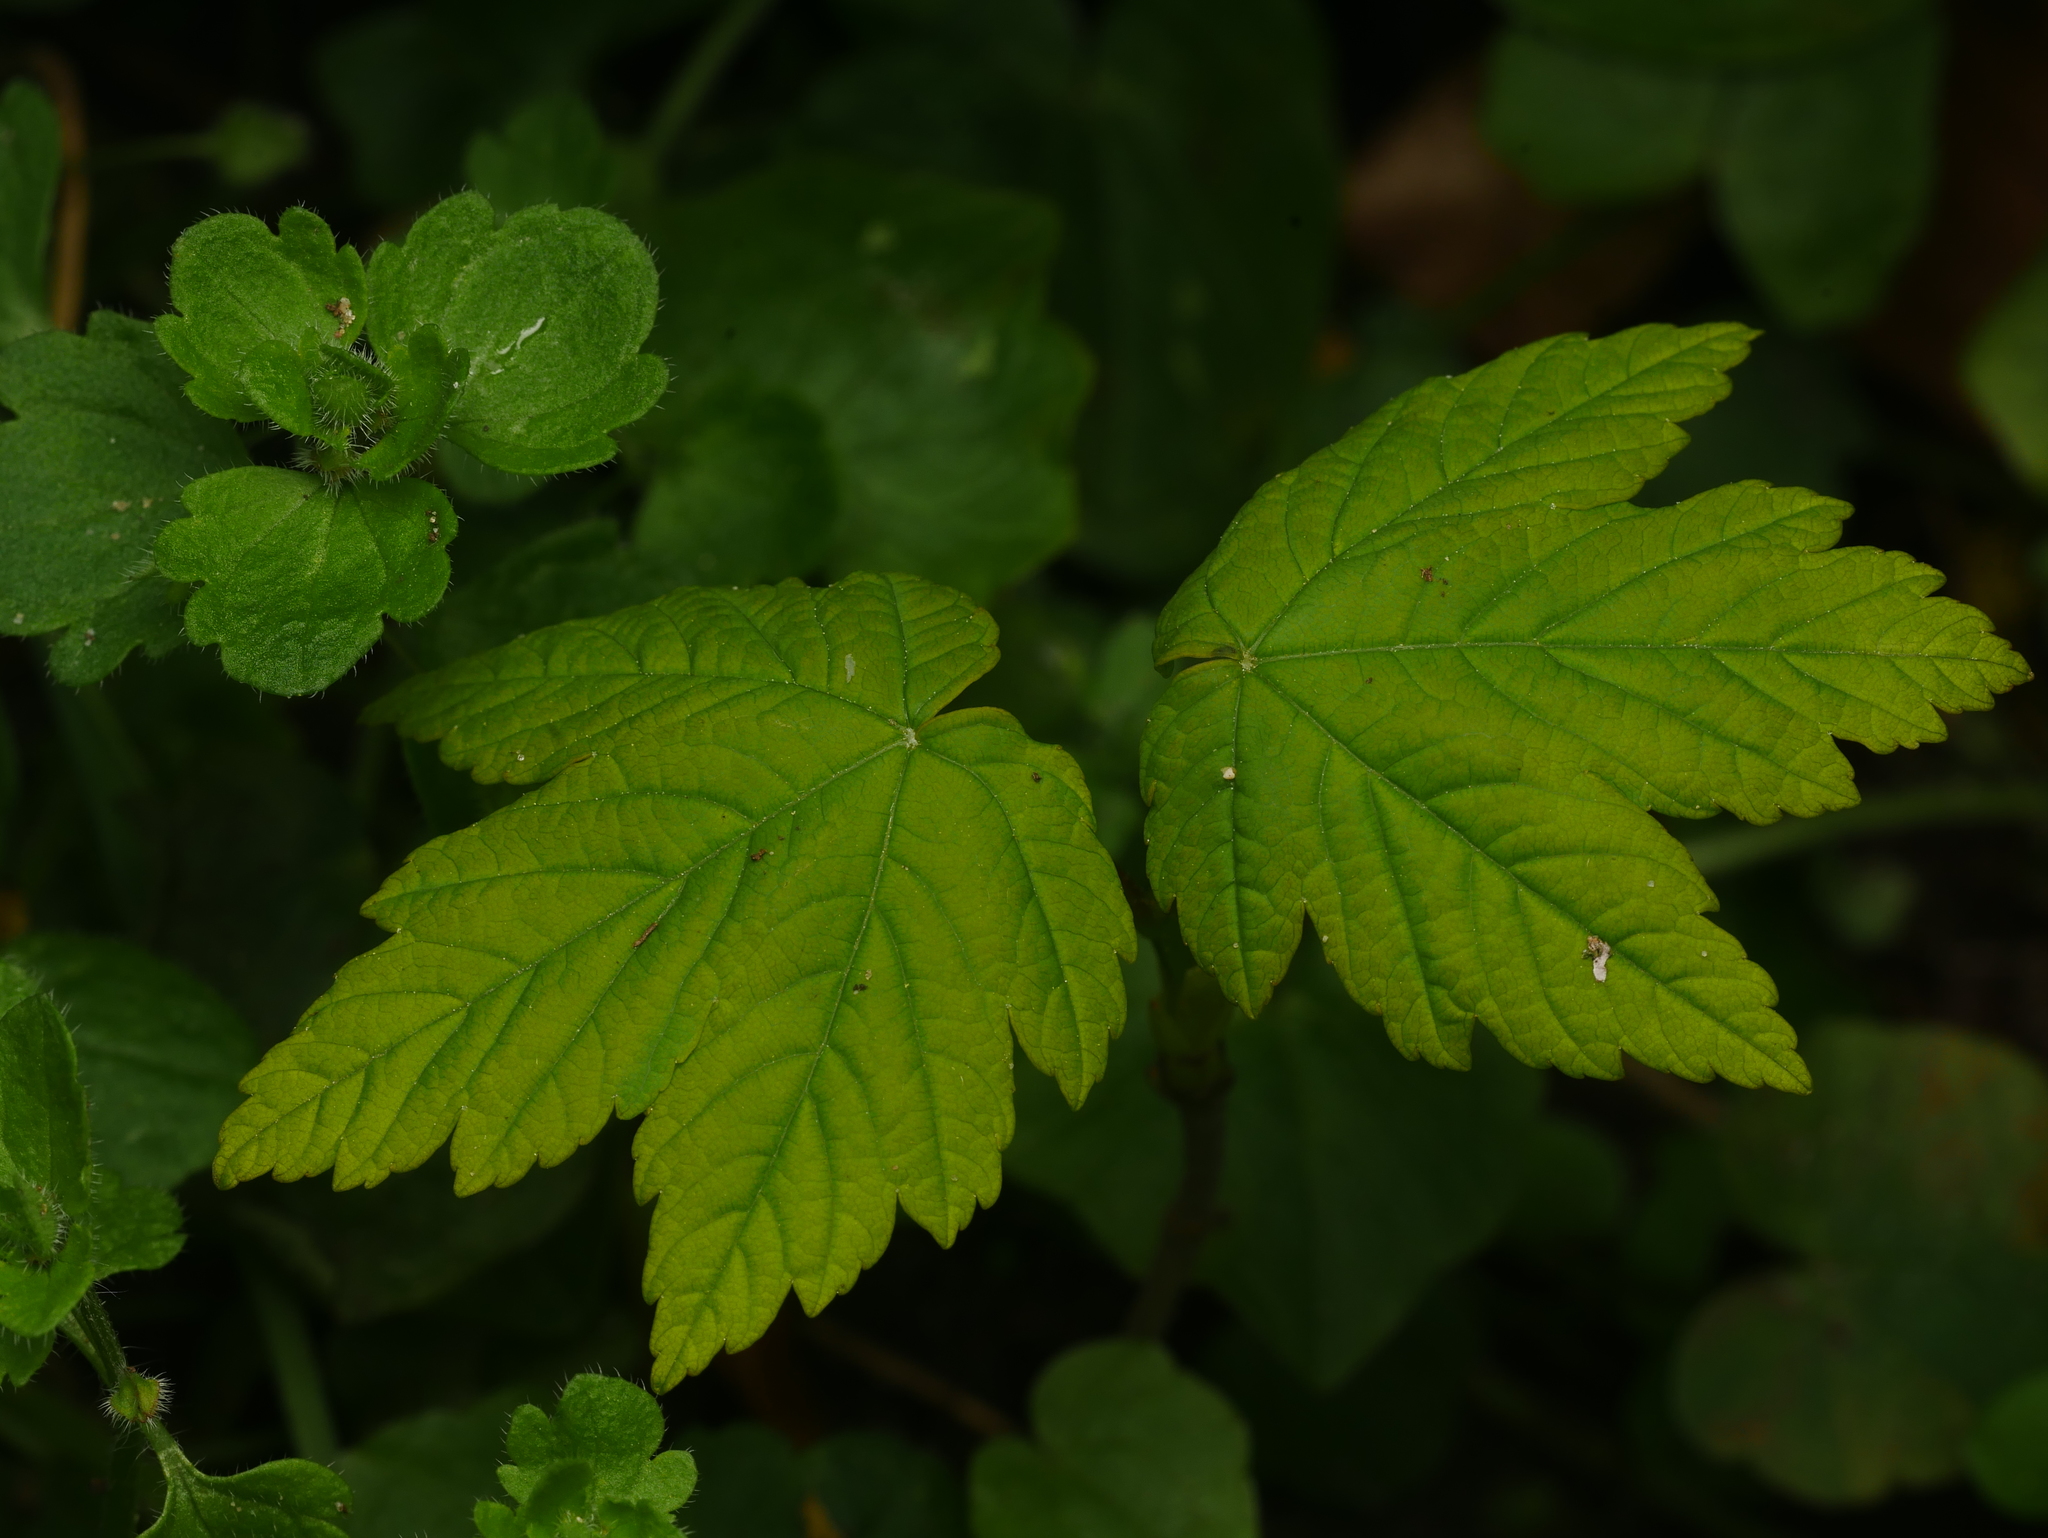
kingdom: Plantae
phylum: Tracheophyta
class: Magnoliopsida
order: Sapindales
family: Sapindaceae
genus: Acer
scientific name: Acer pseudoplatanus
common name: Sycamore
